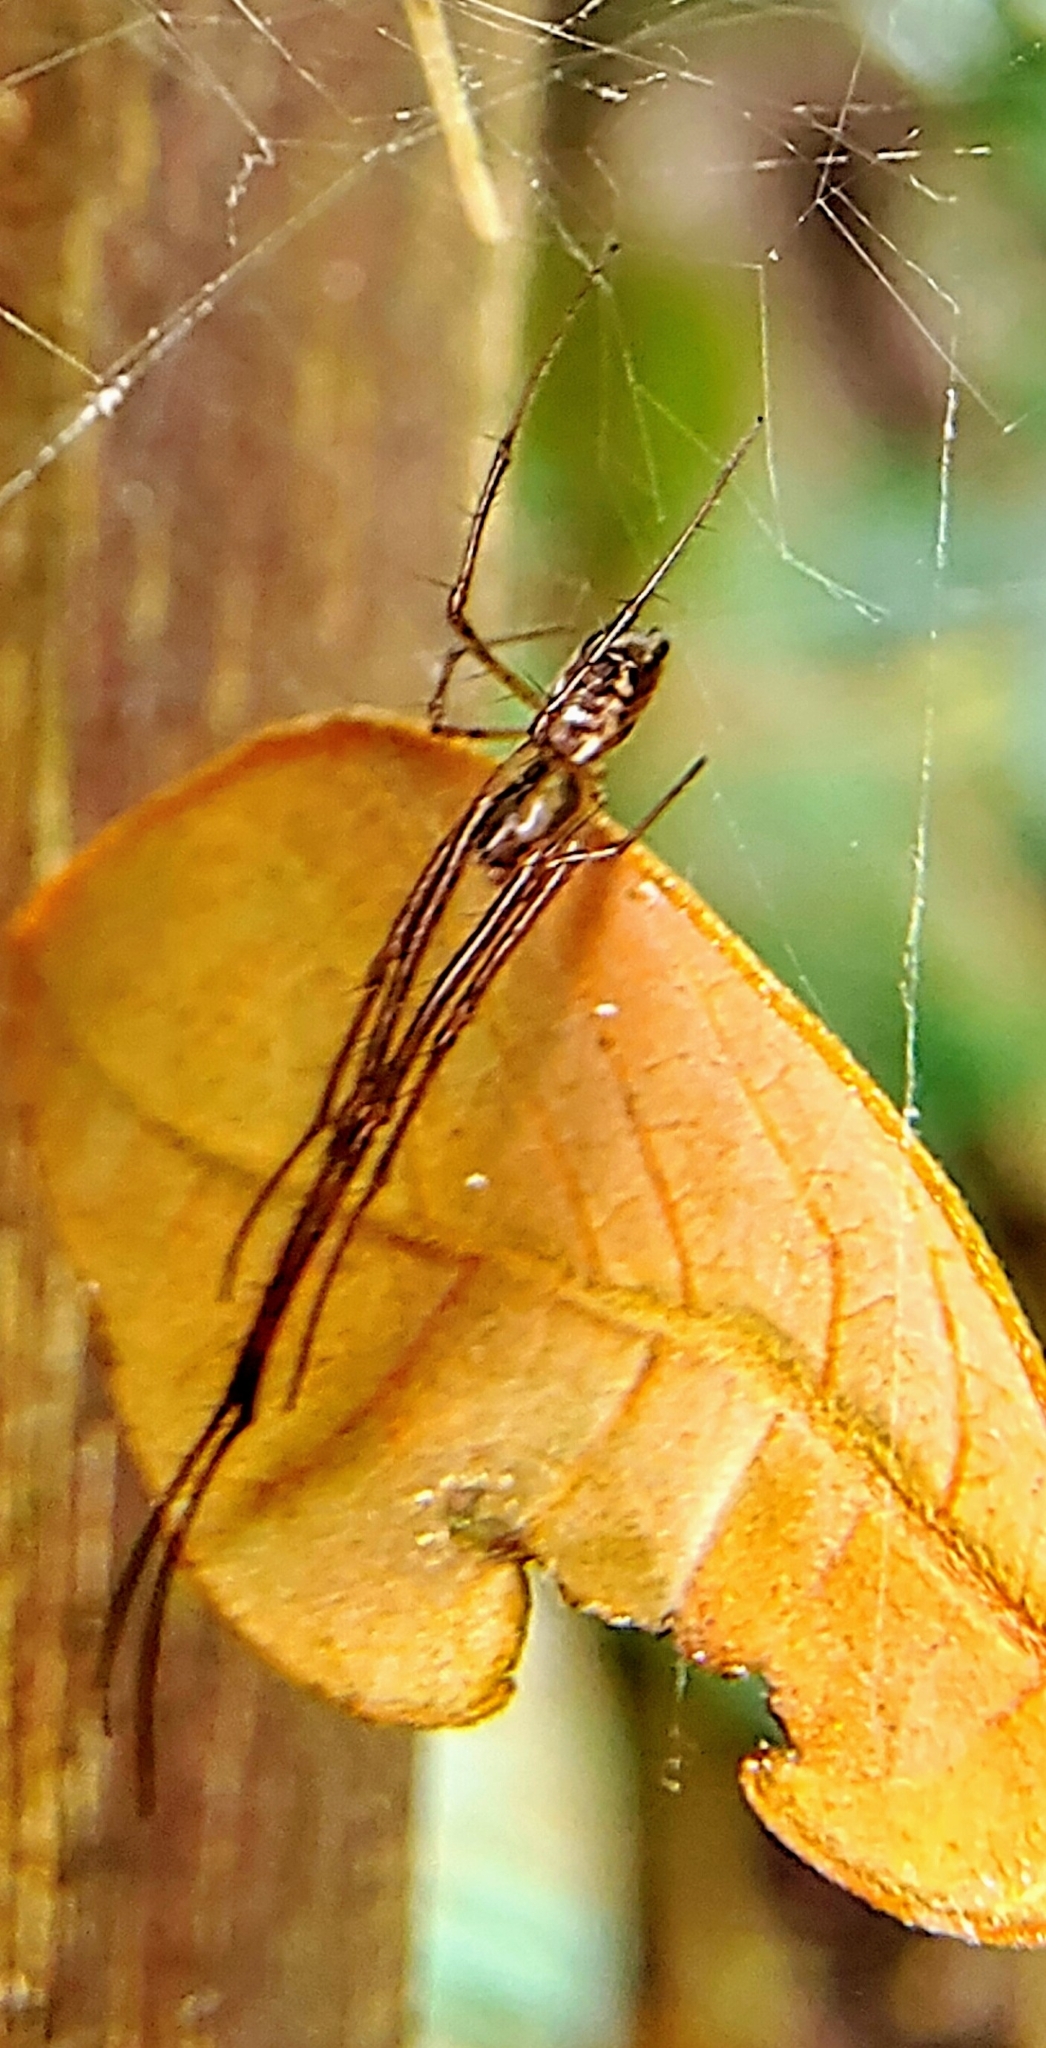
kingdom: Animalia
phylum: Arthropoda
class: Arachnida
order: Araneae
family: Tetragnathidae
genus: Tylorida
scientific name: Tylorida ventralis
